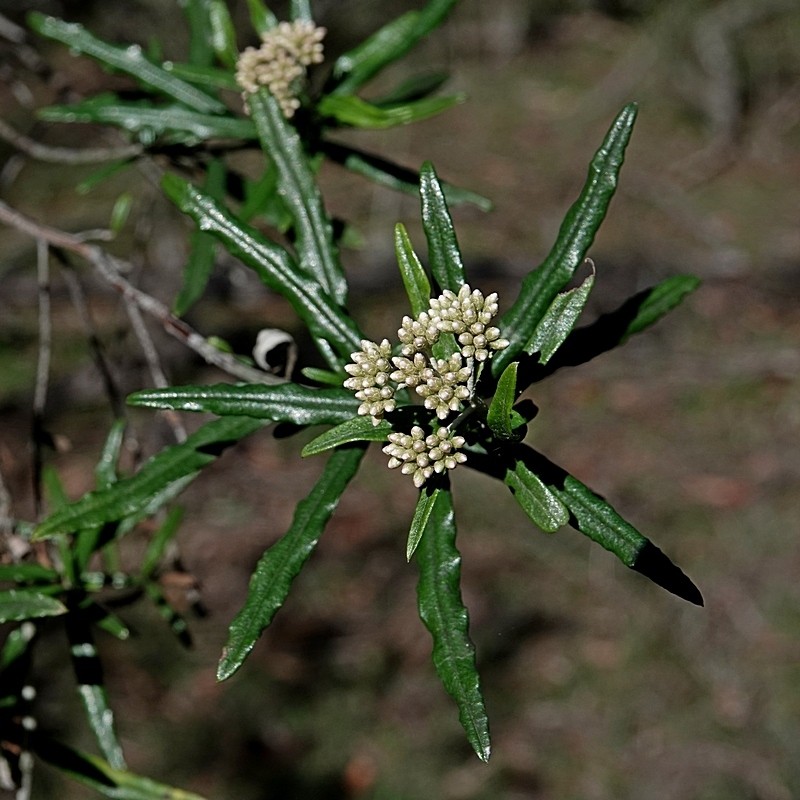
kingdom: Plantae
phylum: Tracheophyta
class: Magnoliopsida
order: Asterales
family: Asteraceae
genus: Ozothamnus
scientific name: Ozothamnus argophyllus
